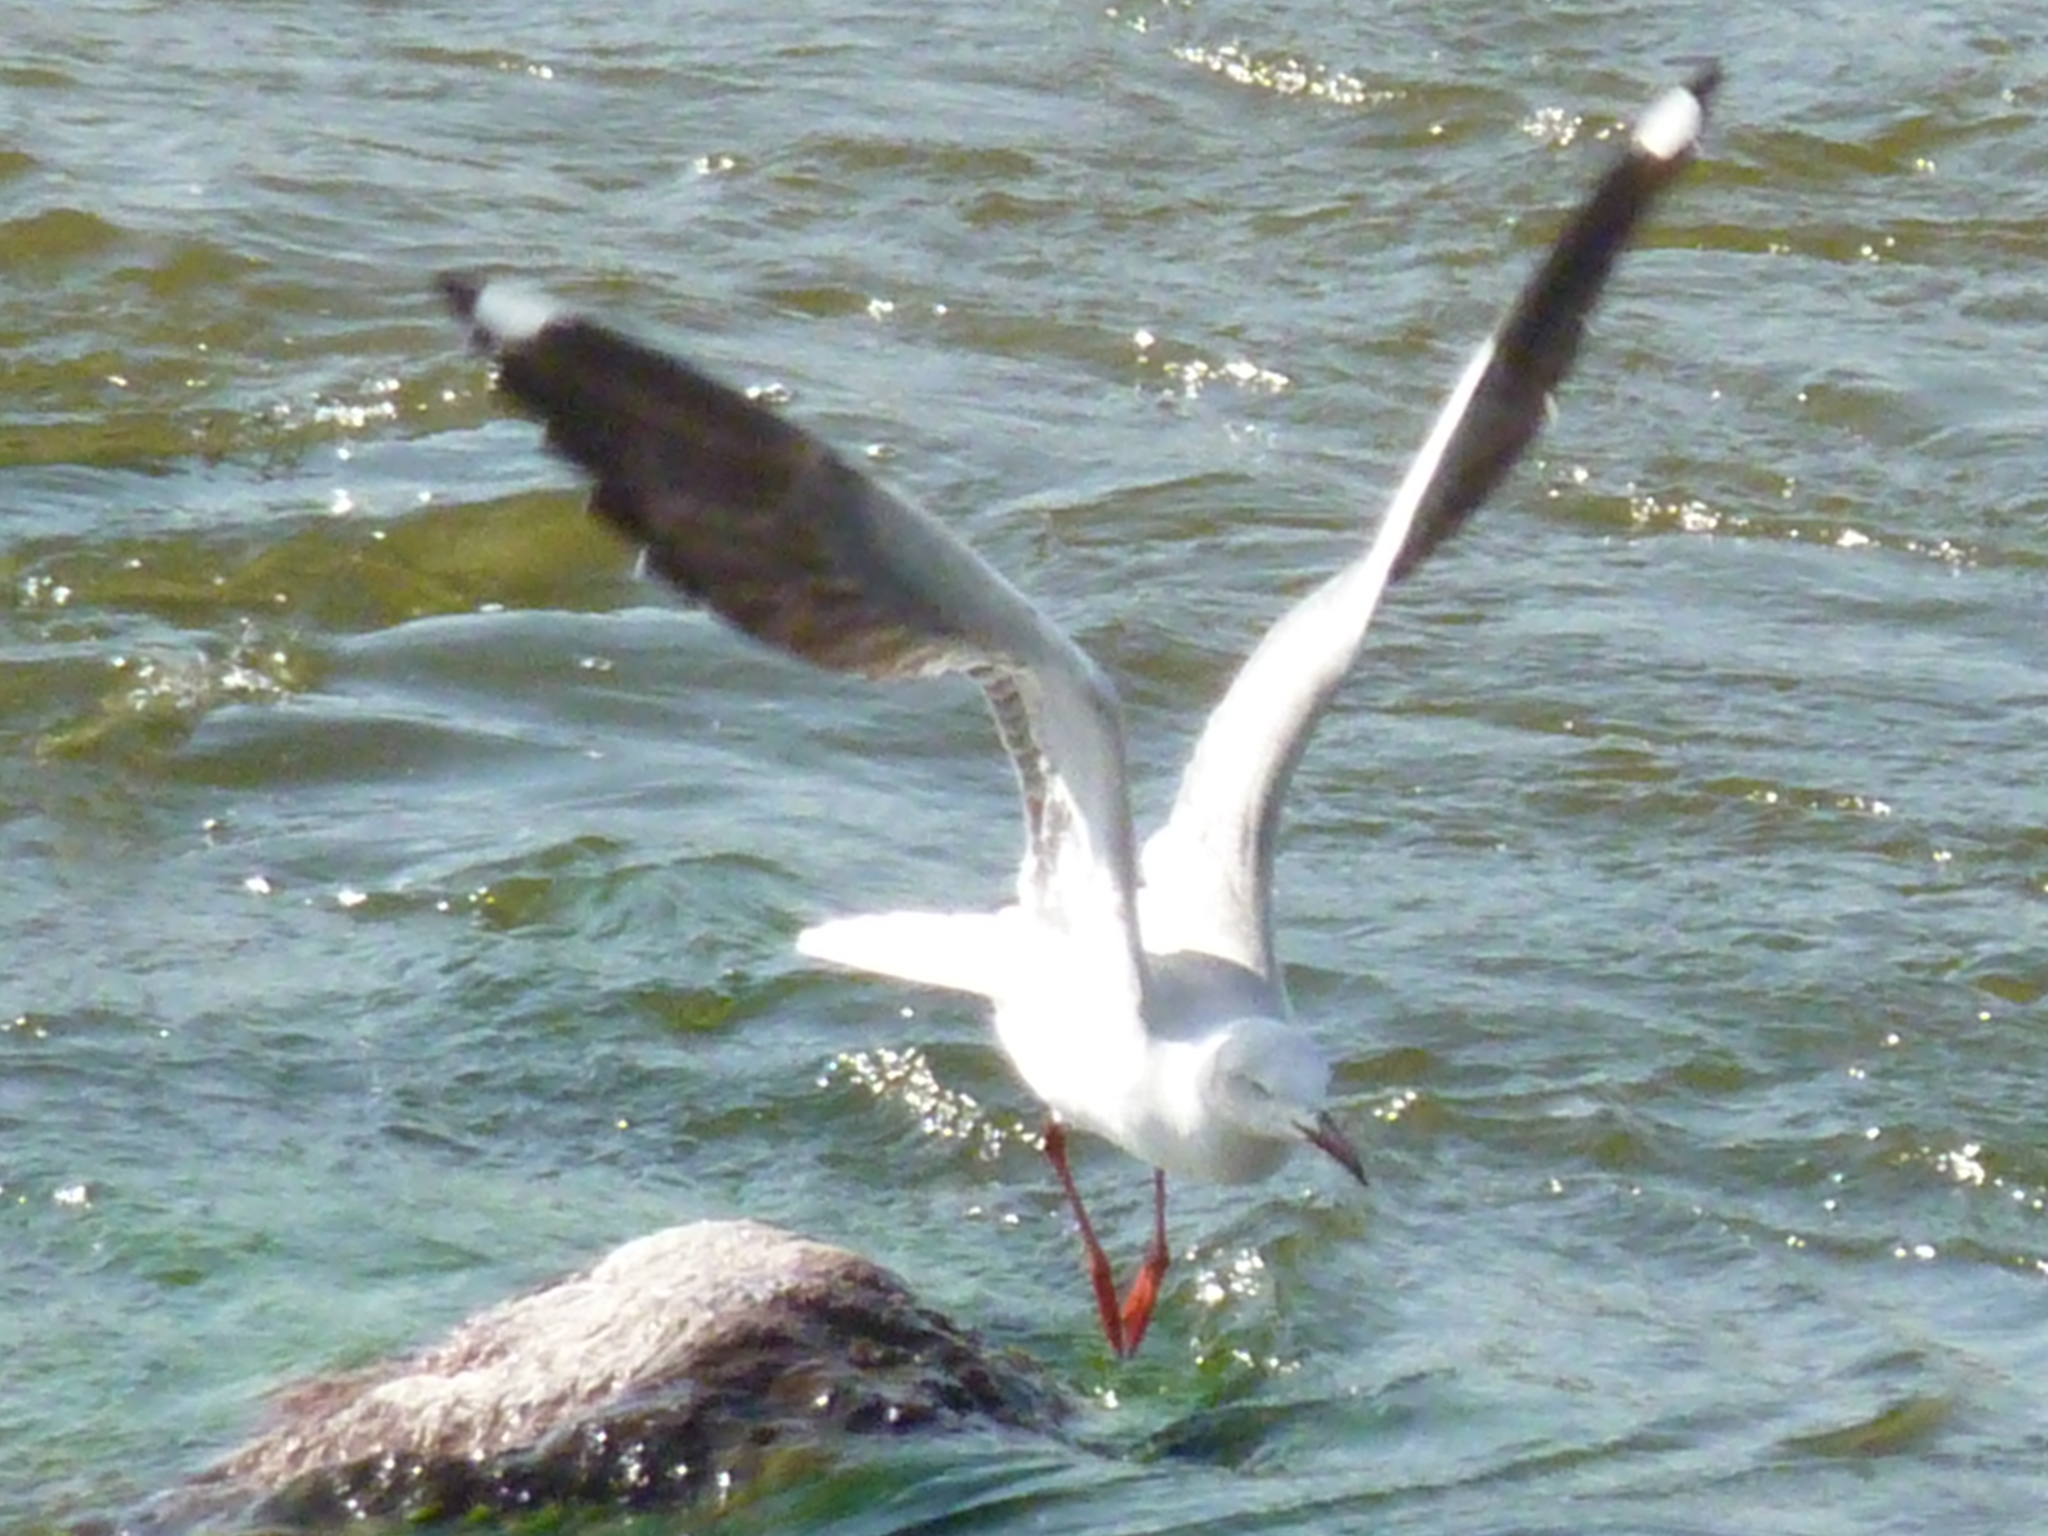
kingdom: Animalia
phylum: Chordata
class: Aves
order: Charadriiformes
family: Laridae
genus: Chroicocephalus
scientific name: Chroicocephalus cirrocephalus
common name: Grey-headed gull
